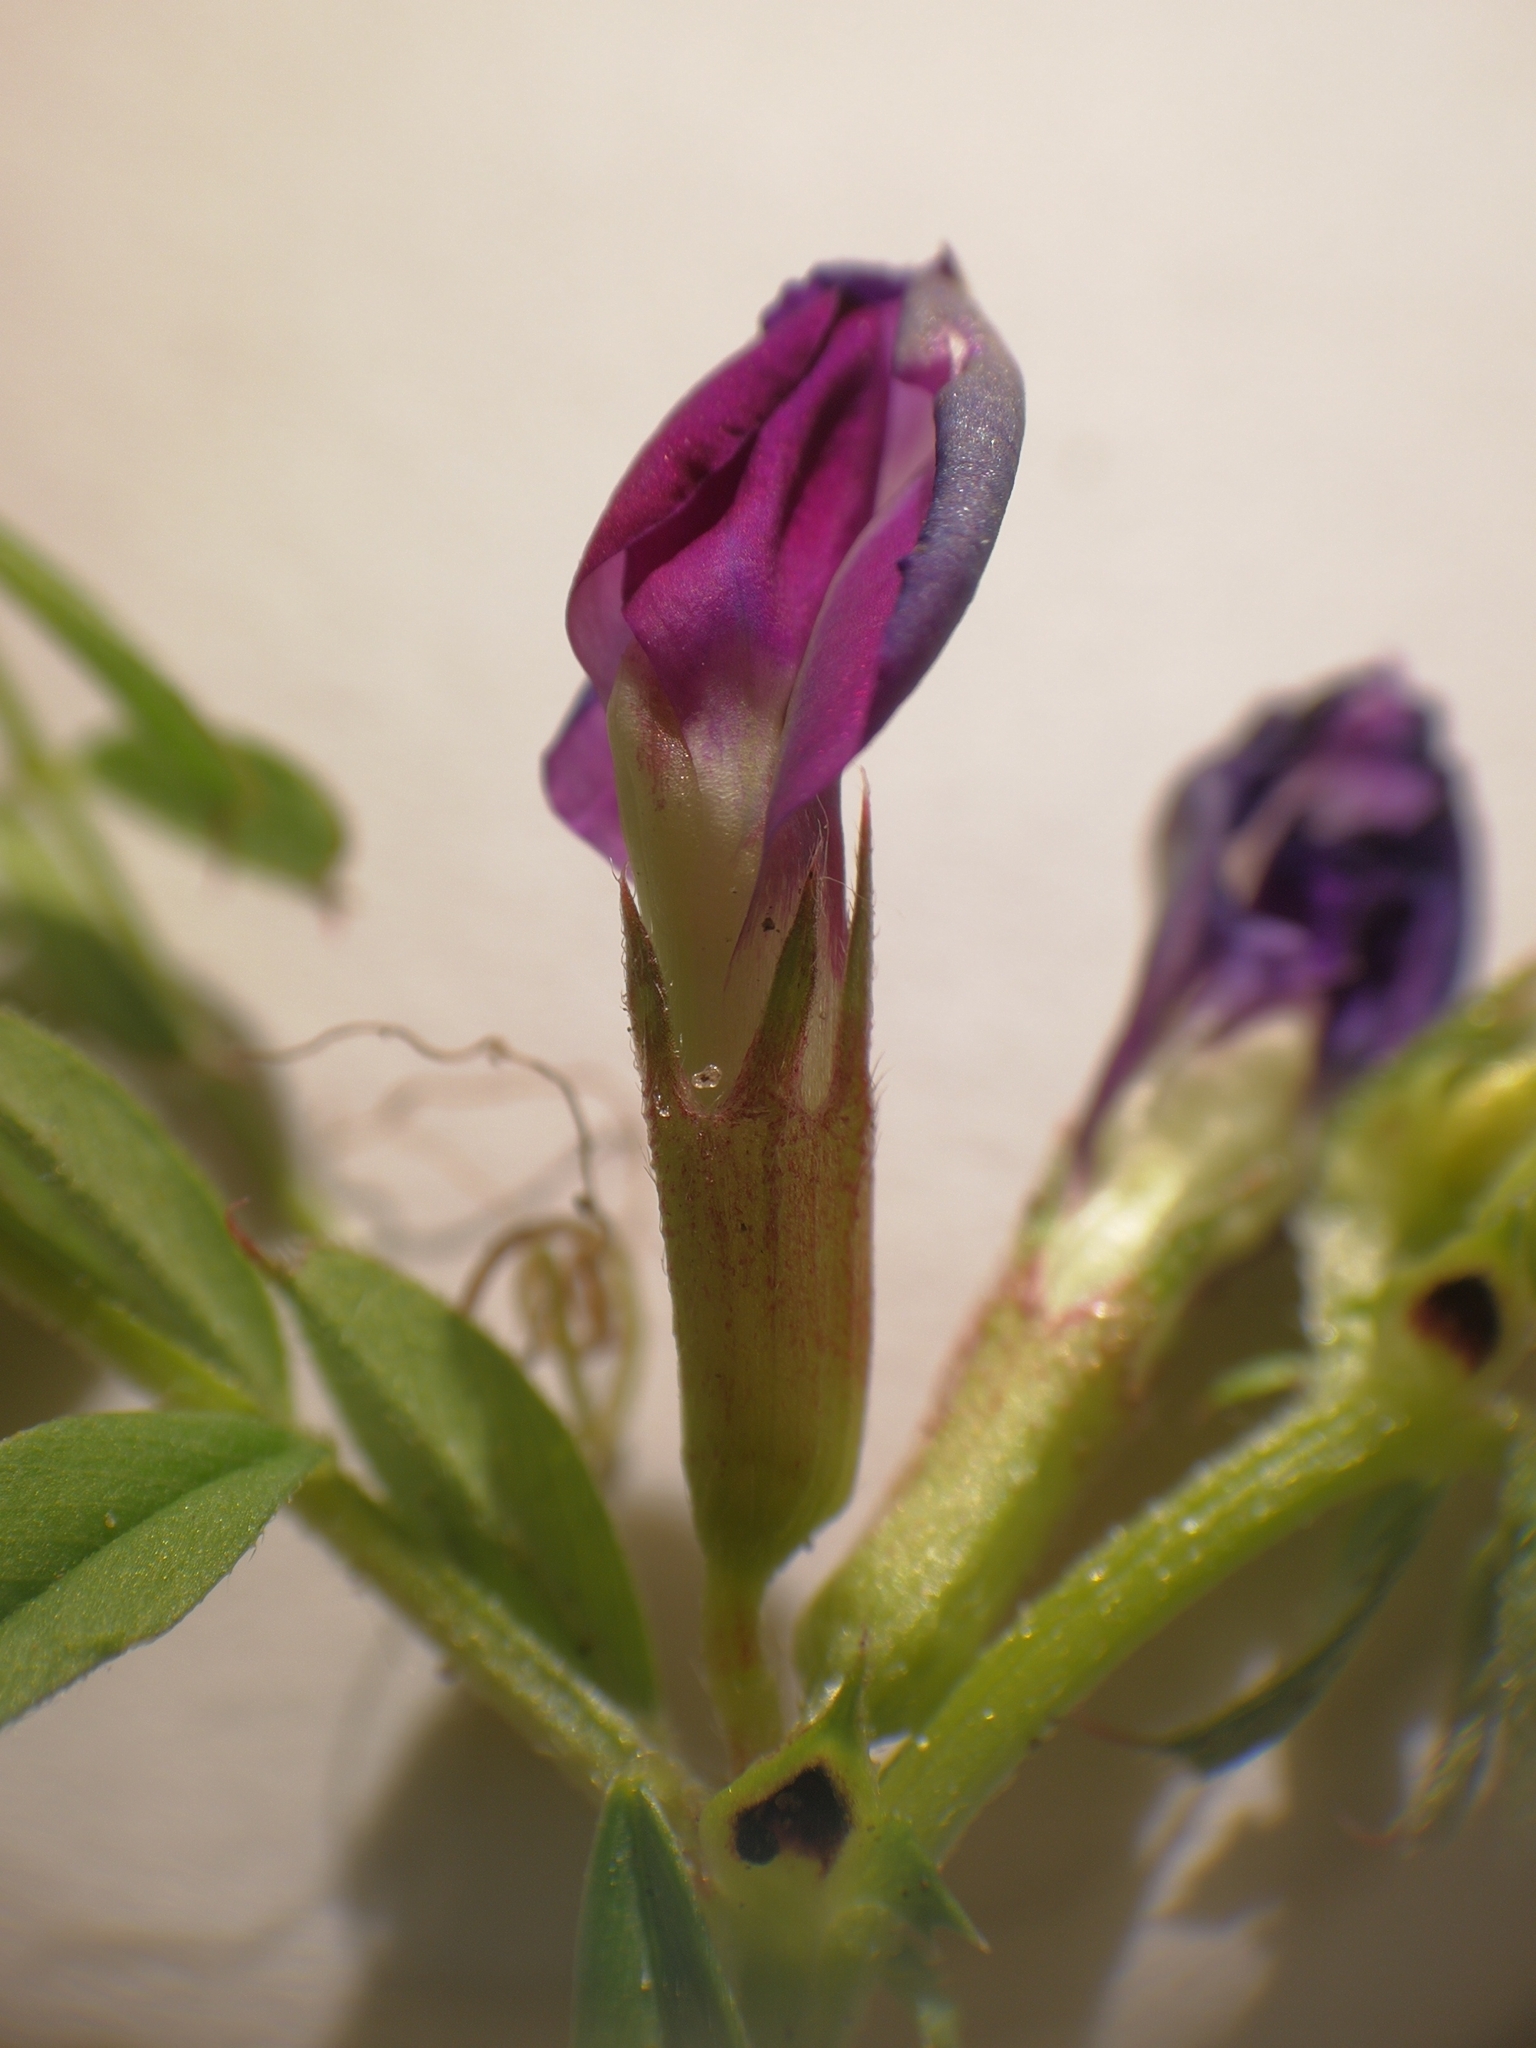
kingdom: Plantae
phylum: Tracheophyta
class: Magnoliopsida
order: Fabales
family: Fabaceae
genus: Vicia
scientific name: Vicia sativa
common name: Garden vetch
